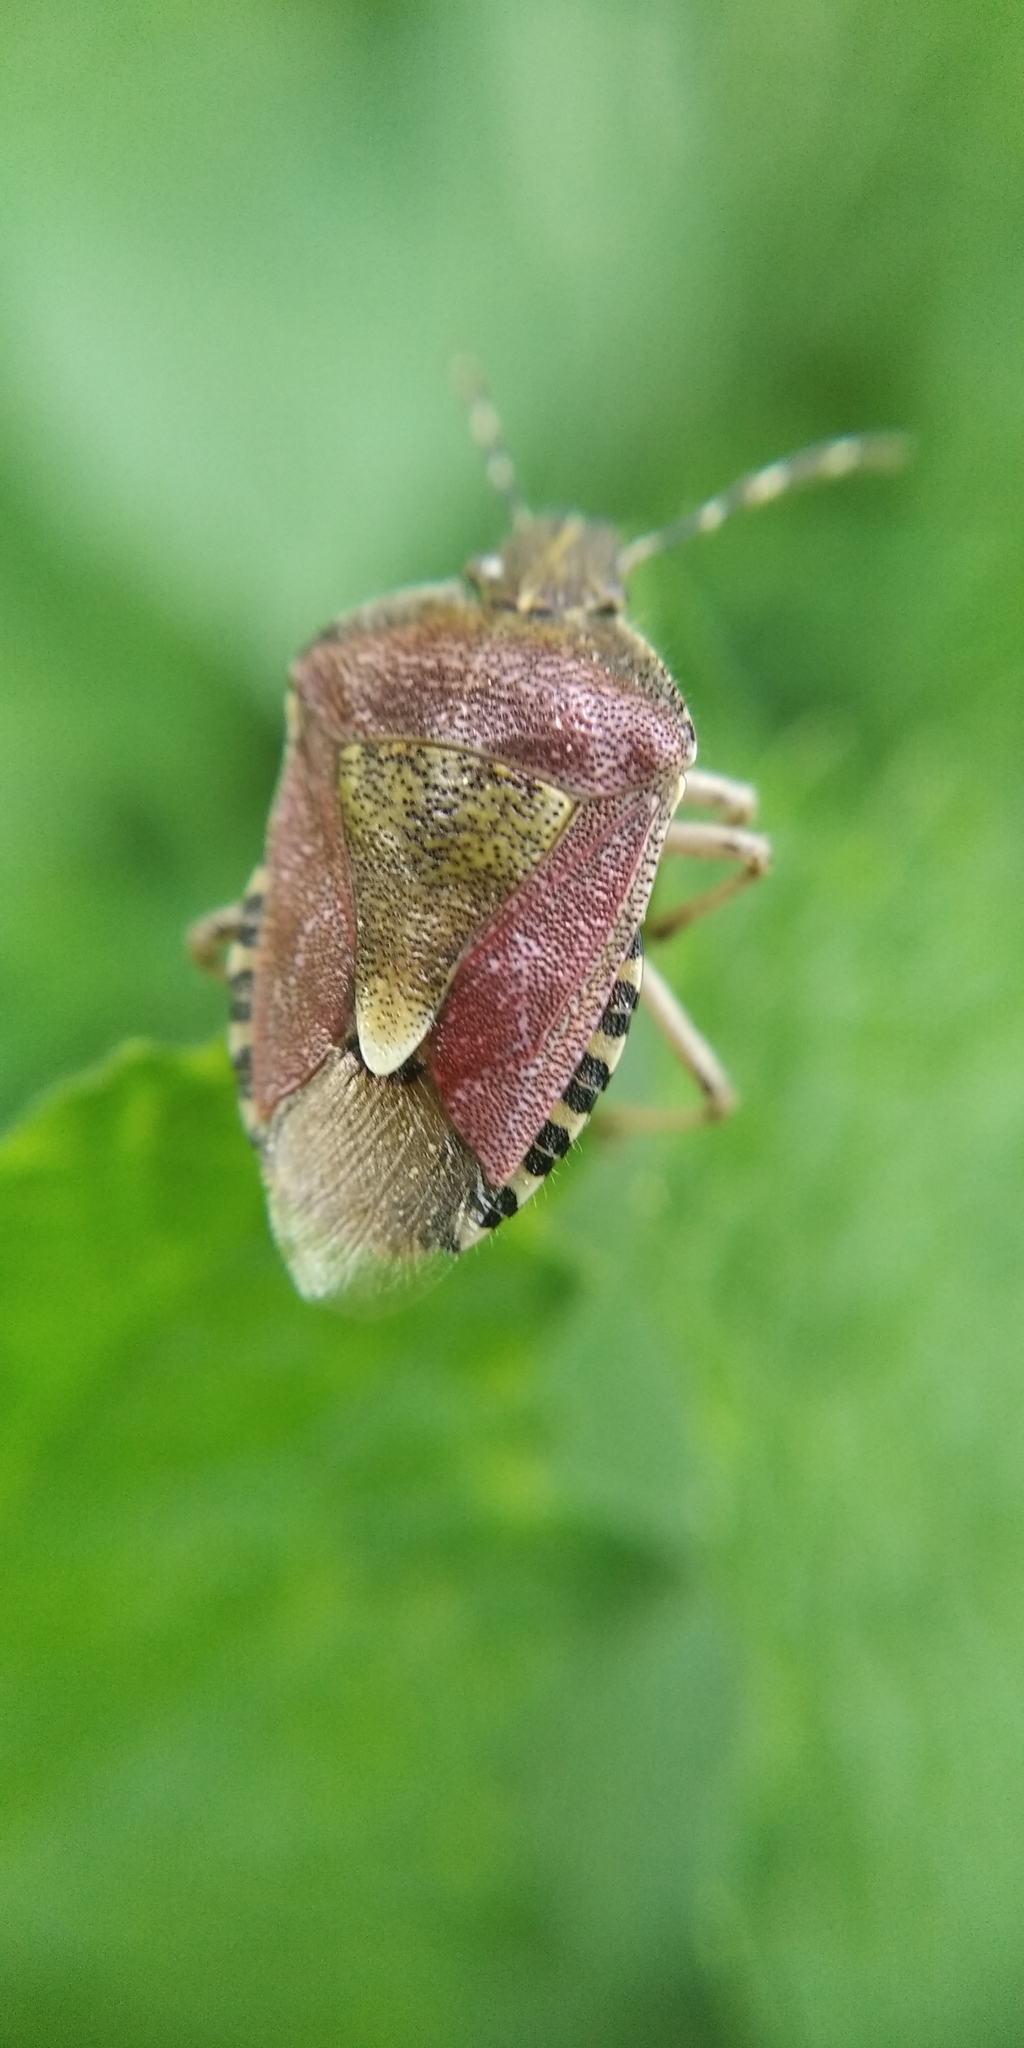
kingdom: Animalia
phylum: Arthropoda
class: Insecta
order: Hemiptera
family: Pentatomidae
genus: Dolycoris
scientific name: Dolycoris baccarum
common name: Sloe bug
